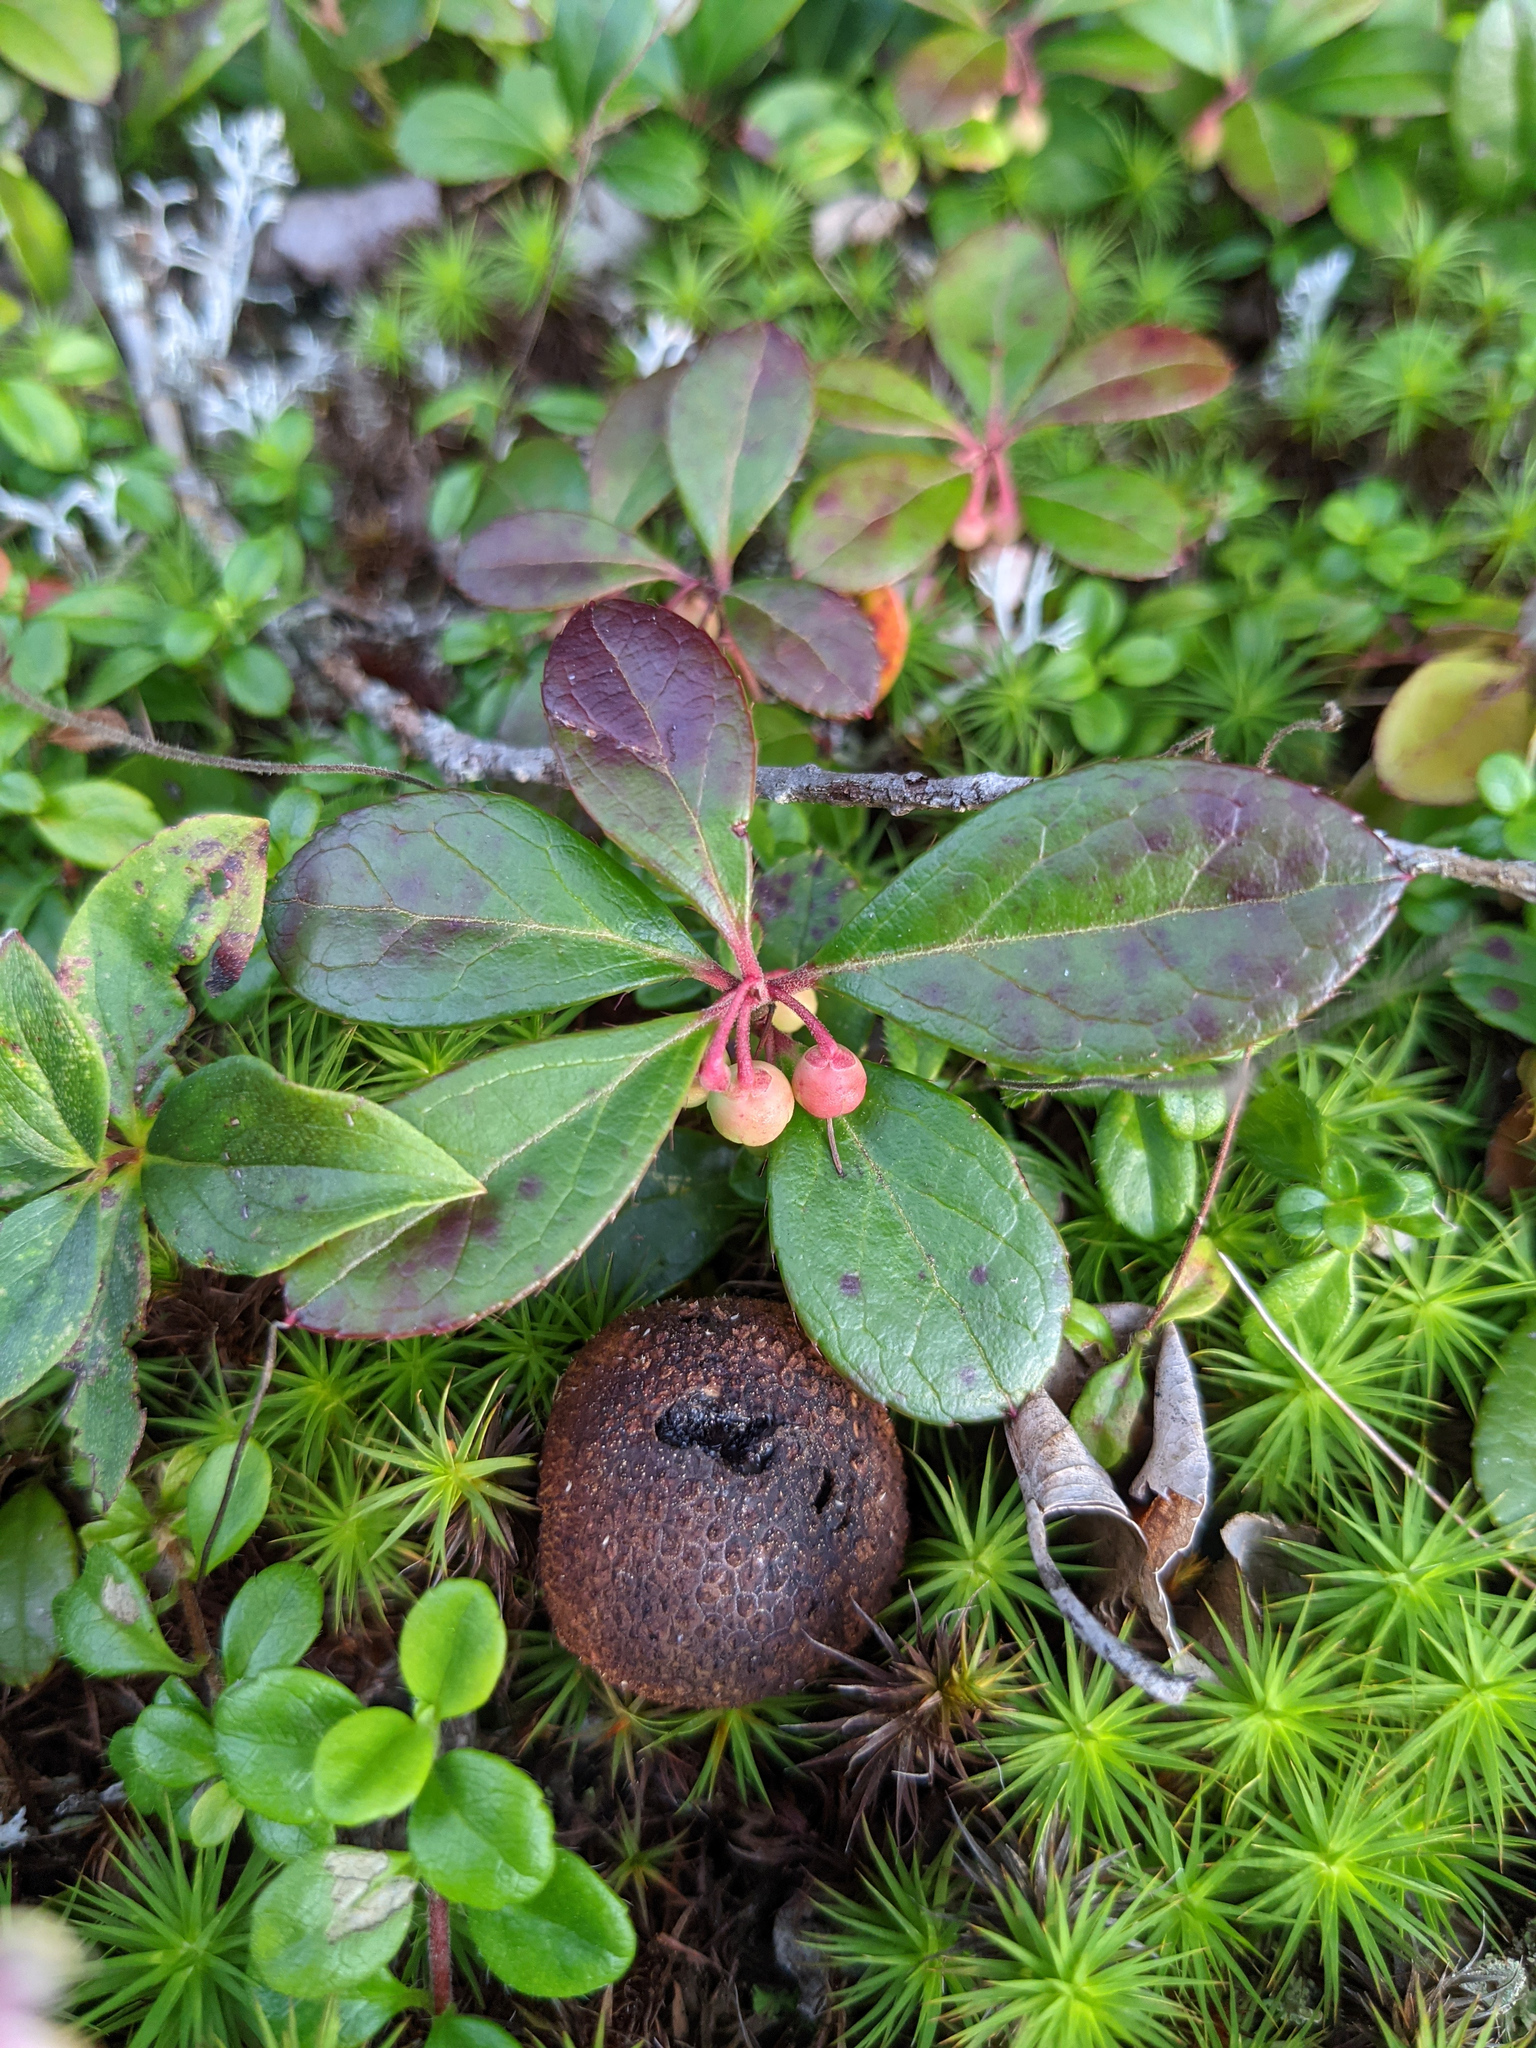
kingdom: Plantae
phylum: Tracheophyta
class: Magnoliopsida
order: Ericales
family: Ericaceae
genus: Gaultheria
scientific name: Gaultheria procumbens
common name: Checkerberry
